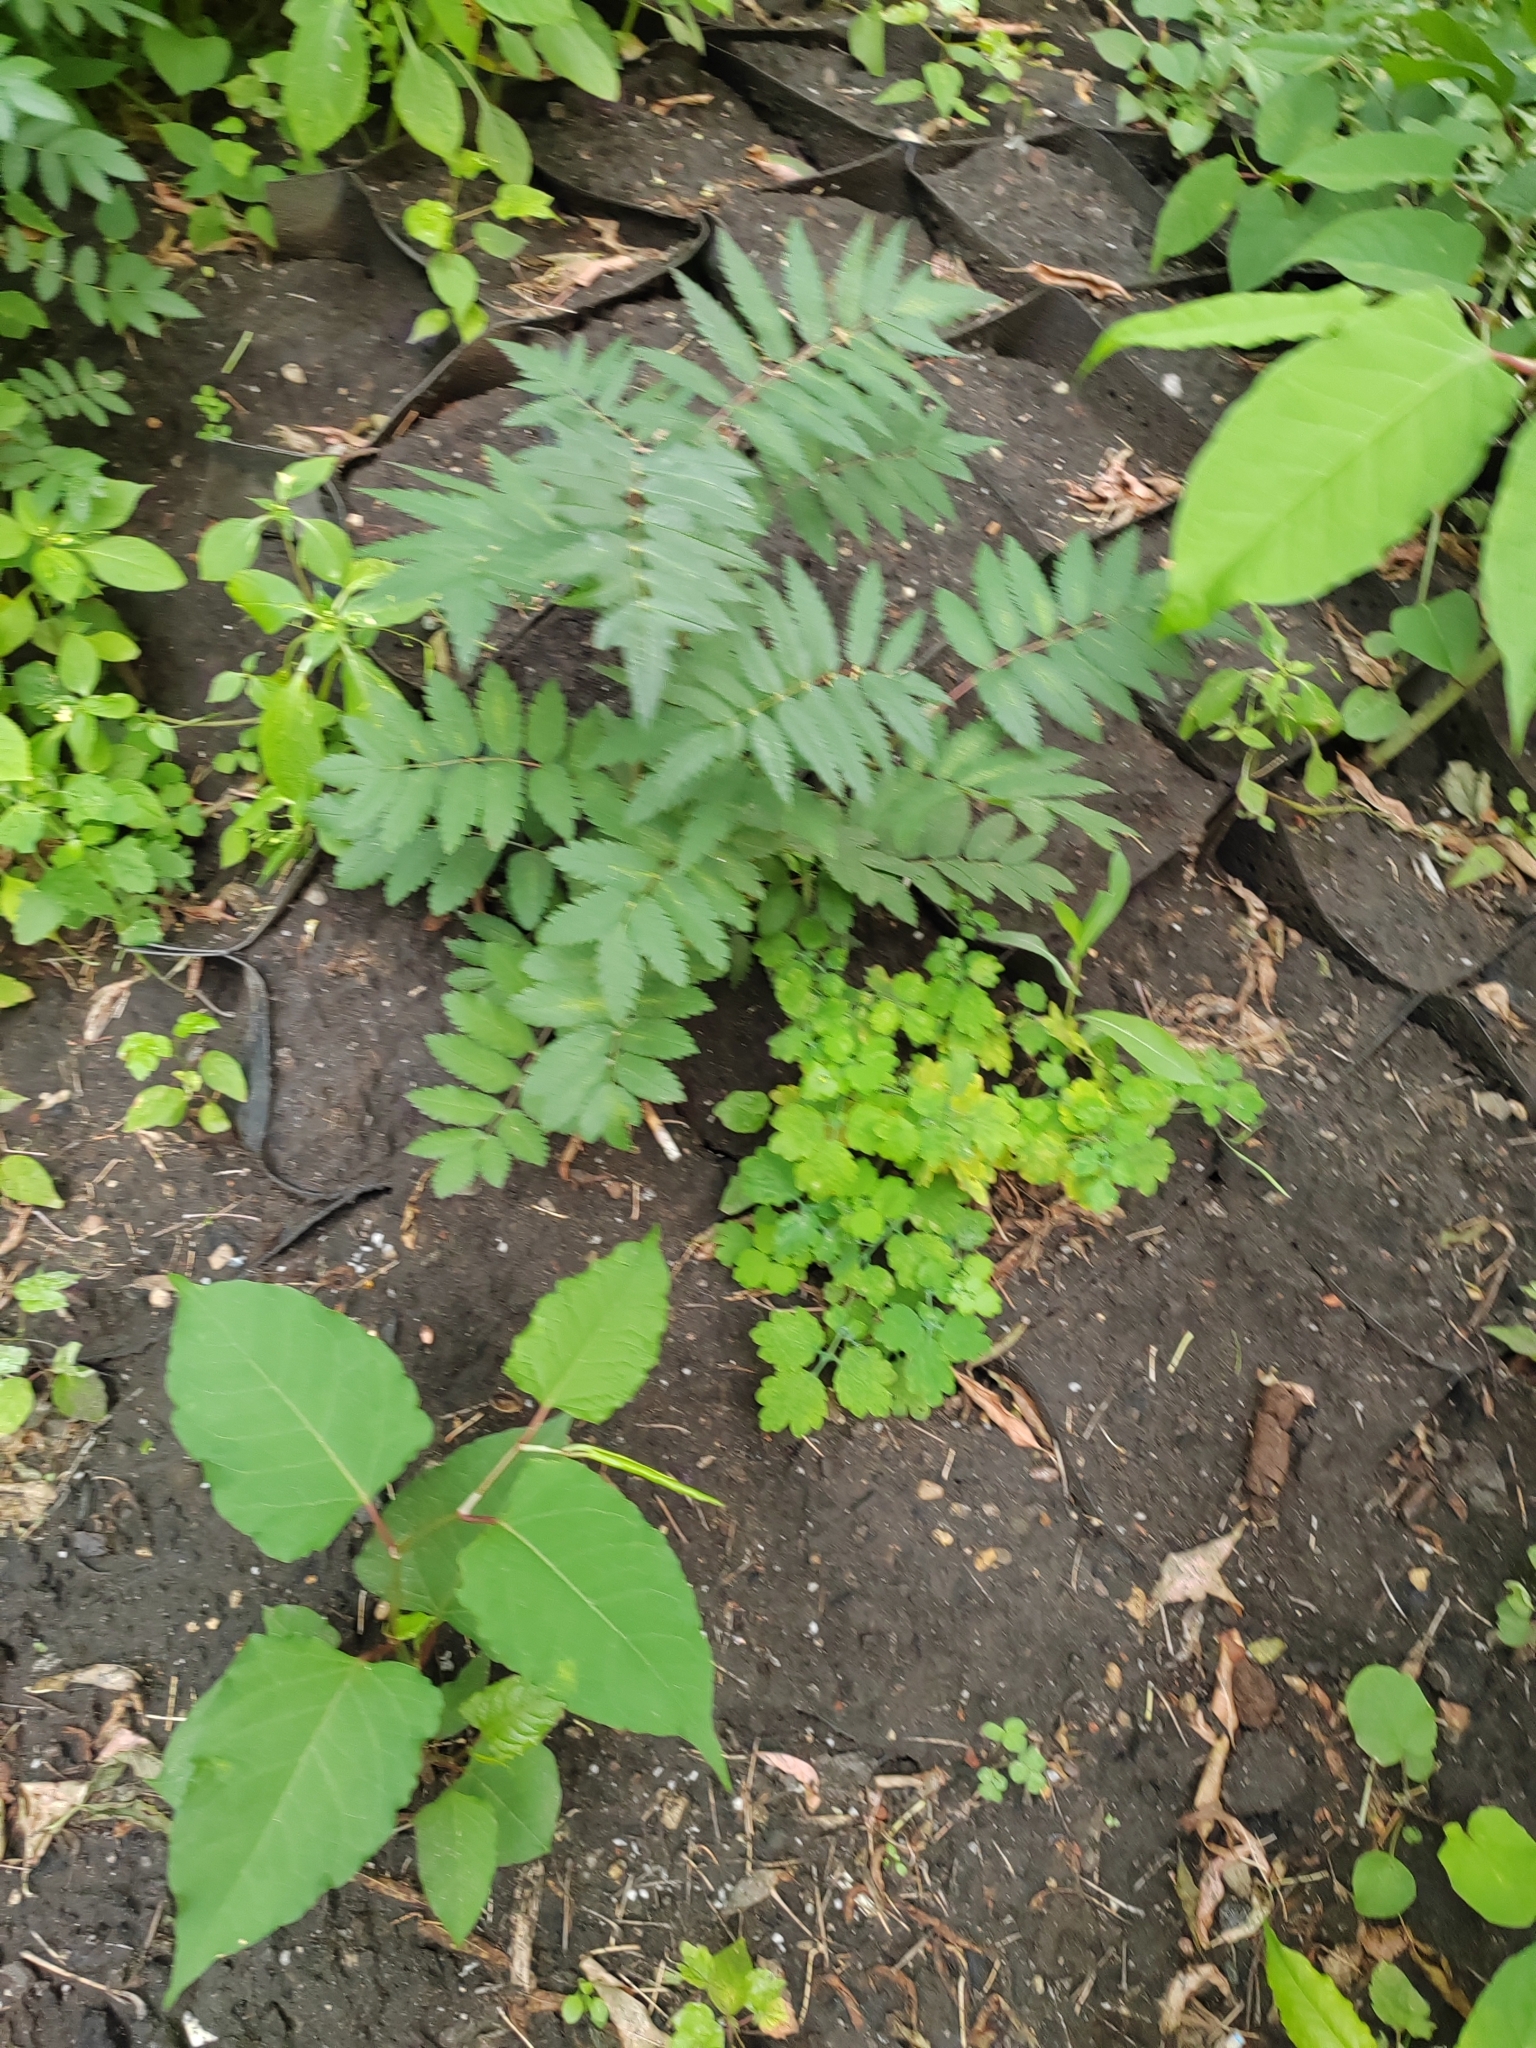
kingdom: Plantae
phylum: Tracheophyta
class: Magnoliopsida
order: Rosales
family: Rosaceae
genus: Sorbus
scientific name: Sorbus aucuparia
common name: Rowan
